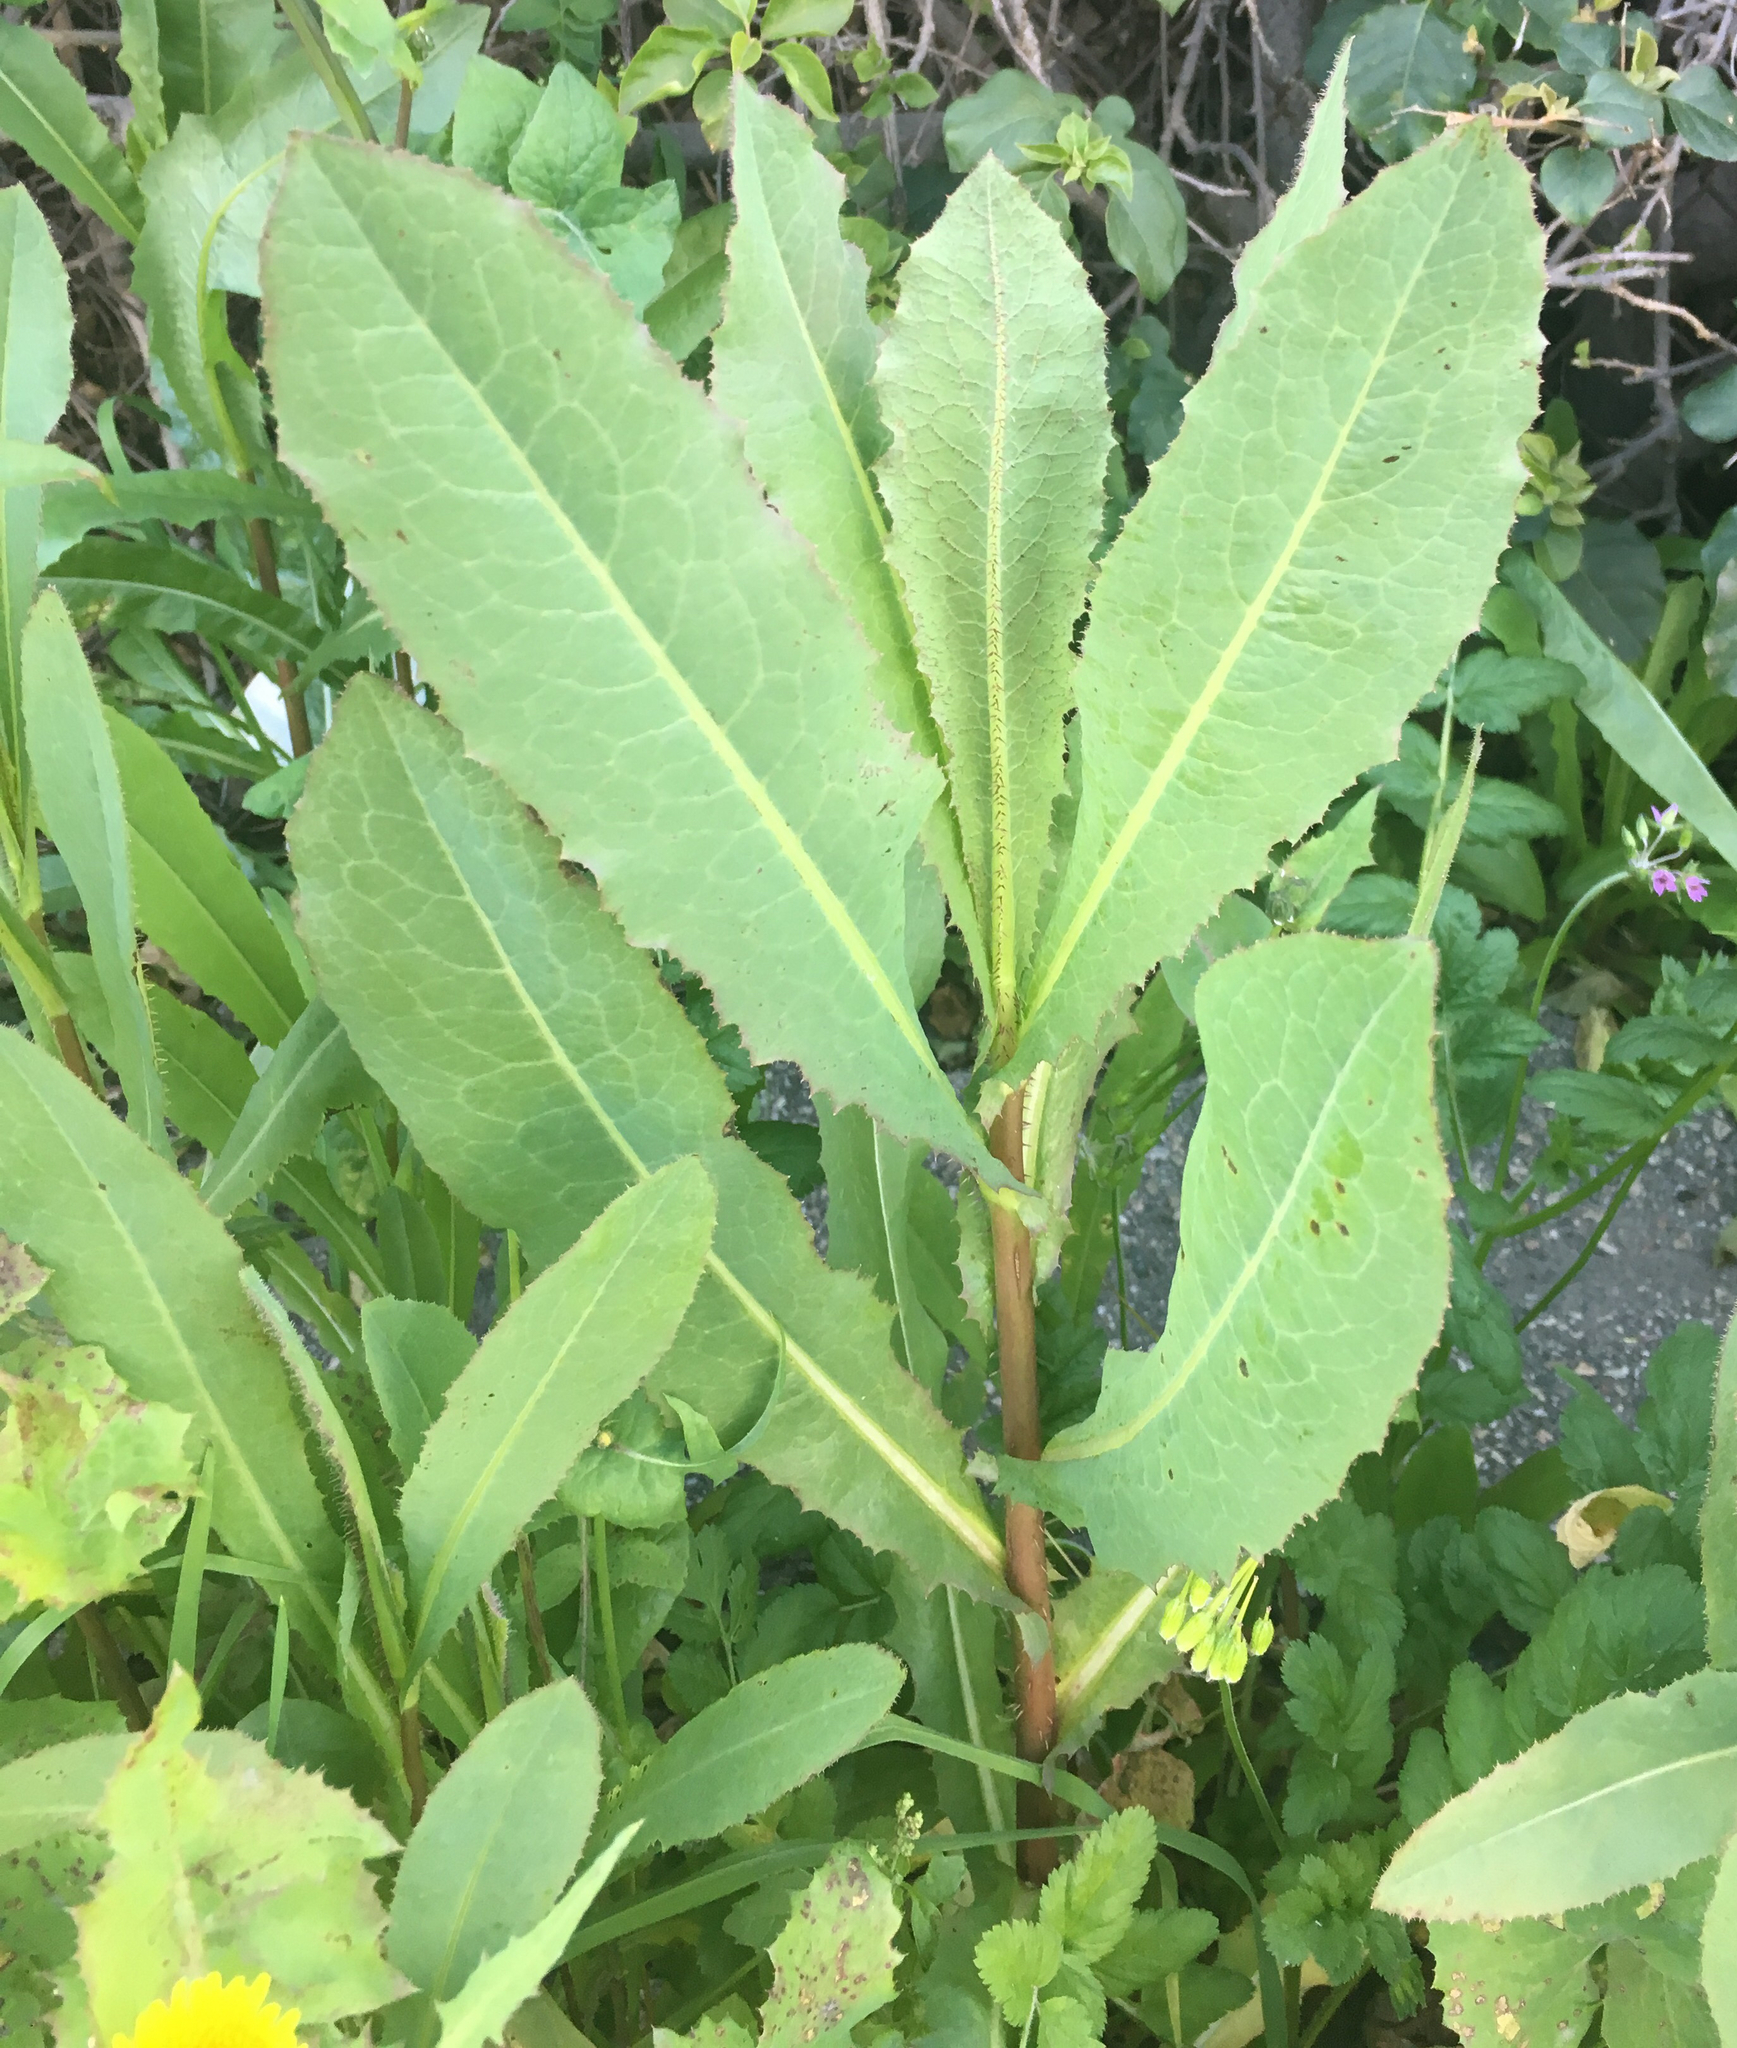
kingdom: Plantae
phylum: Tracheophyta
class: Magnoliopsida
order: Asterales
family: Asteraceae
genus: Lactuca
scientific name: Lactuca serriola
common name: Prickly lettuce
